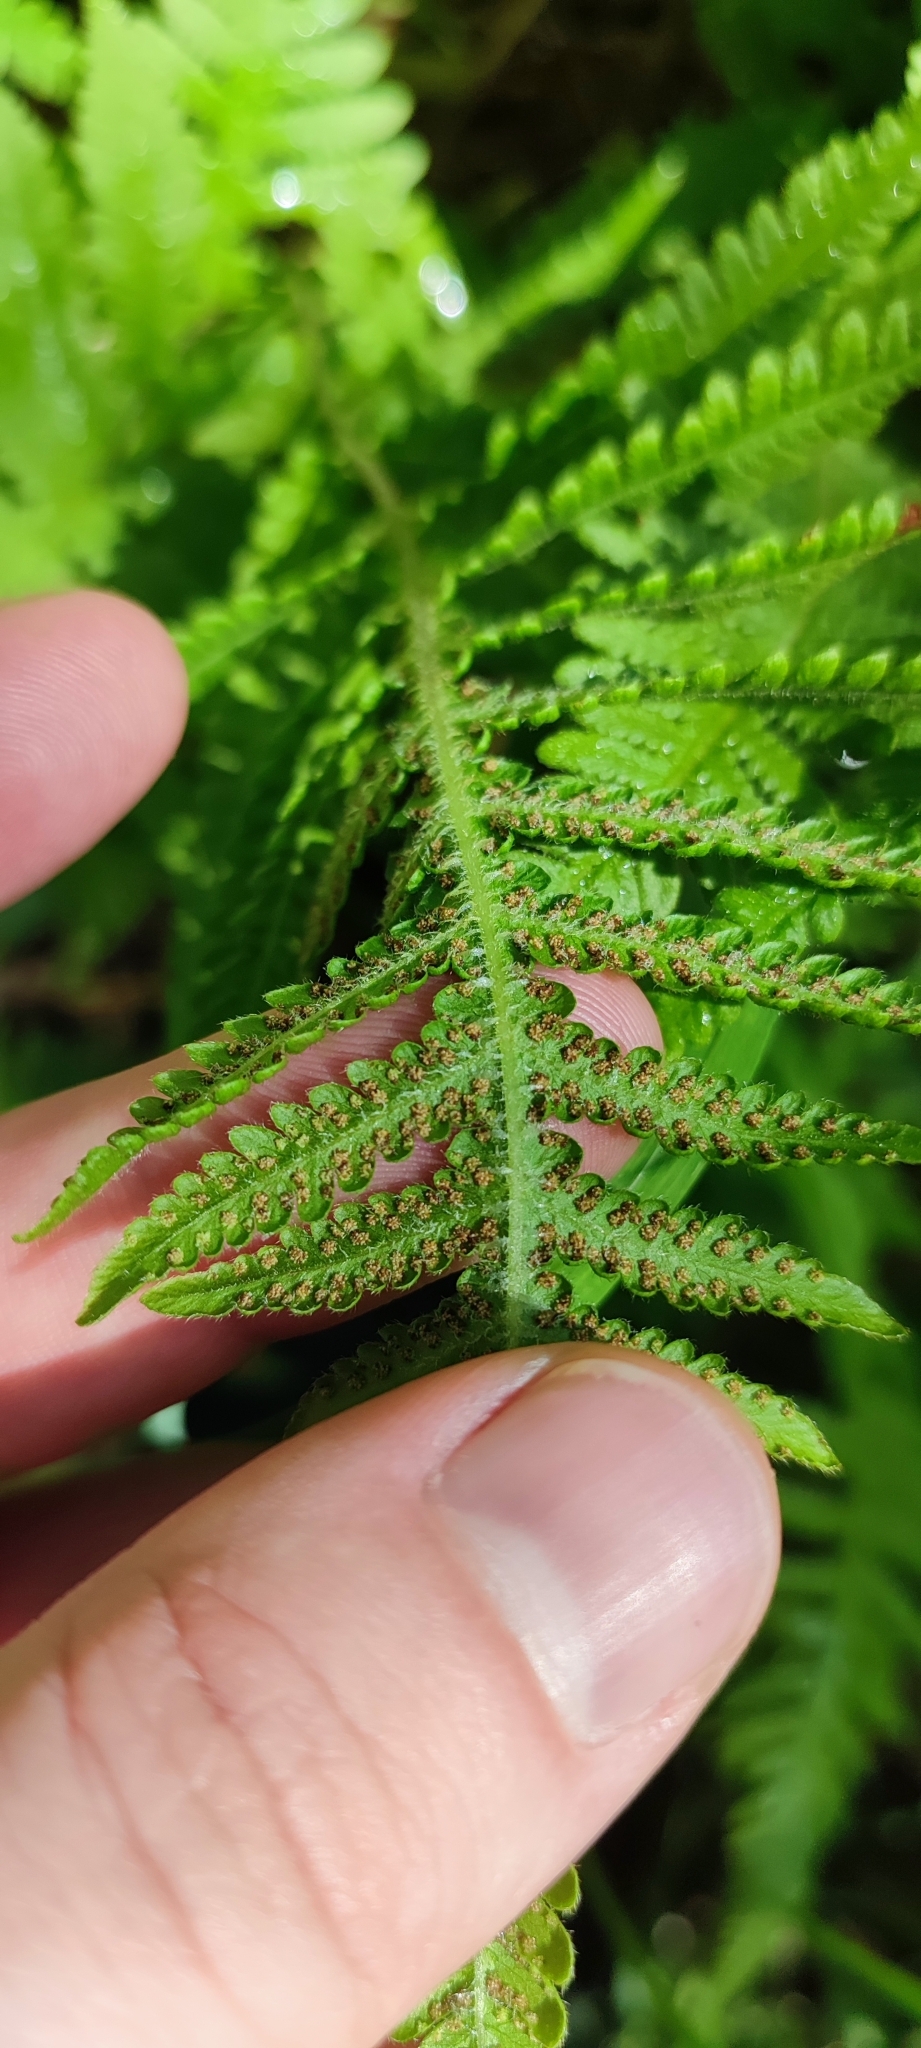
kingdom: Plantae
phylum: Tracheophyta
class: Polypodiopsida
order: Polypodiales
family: Thelypteridaceae
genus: Phegopteris
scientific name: Phegopteris connectilis
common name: Beech fern
